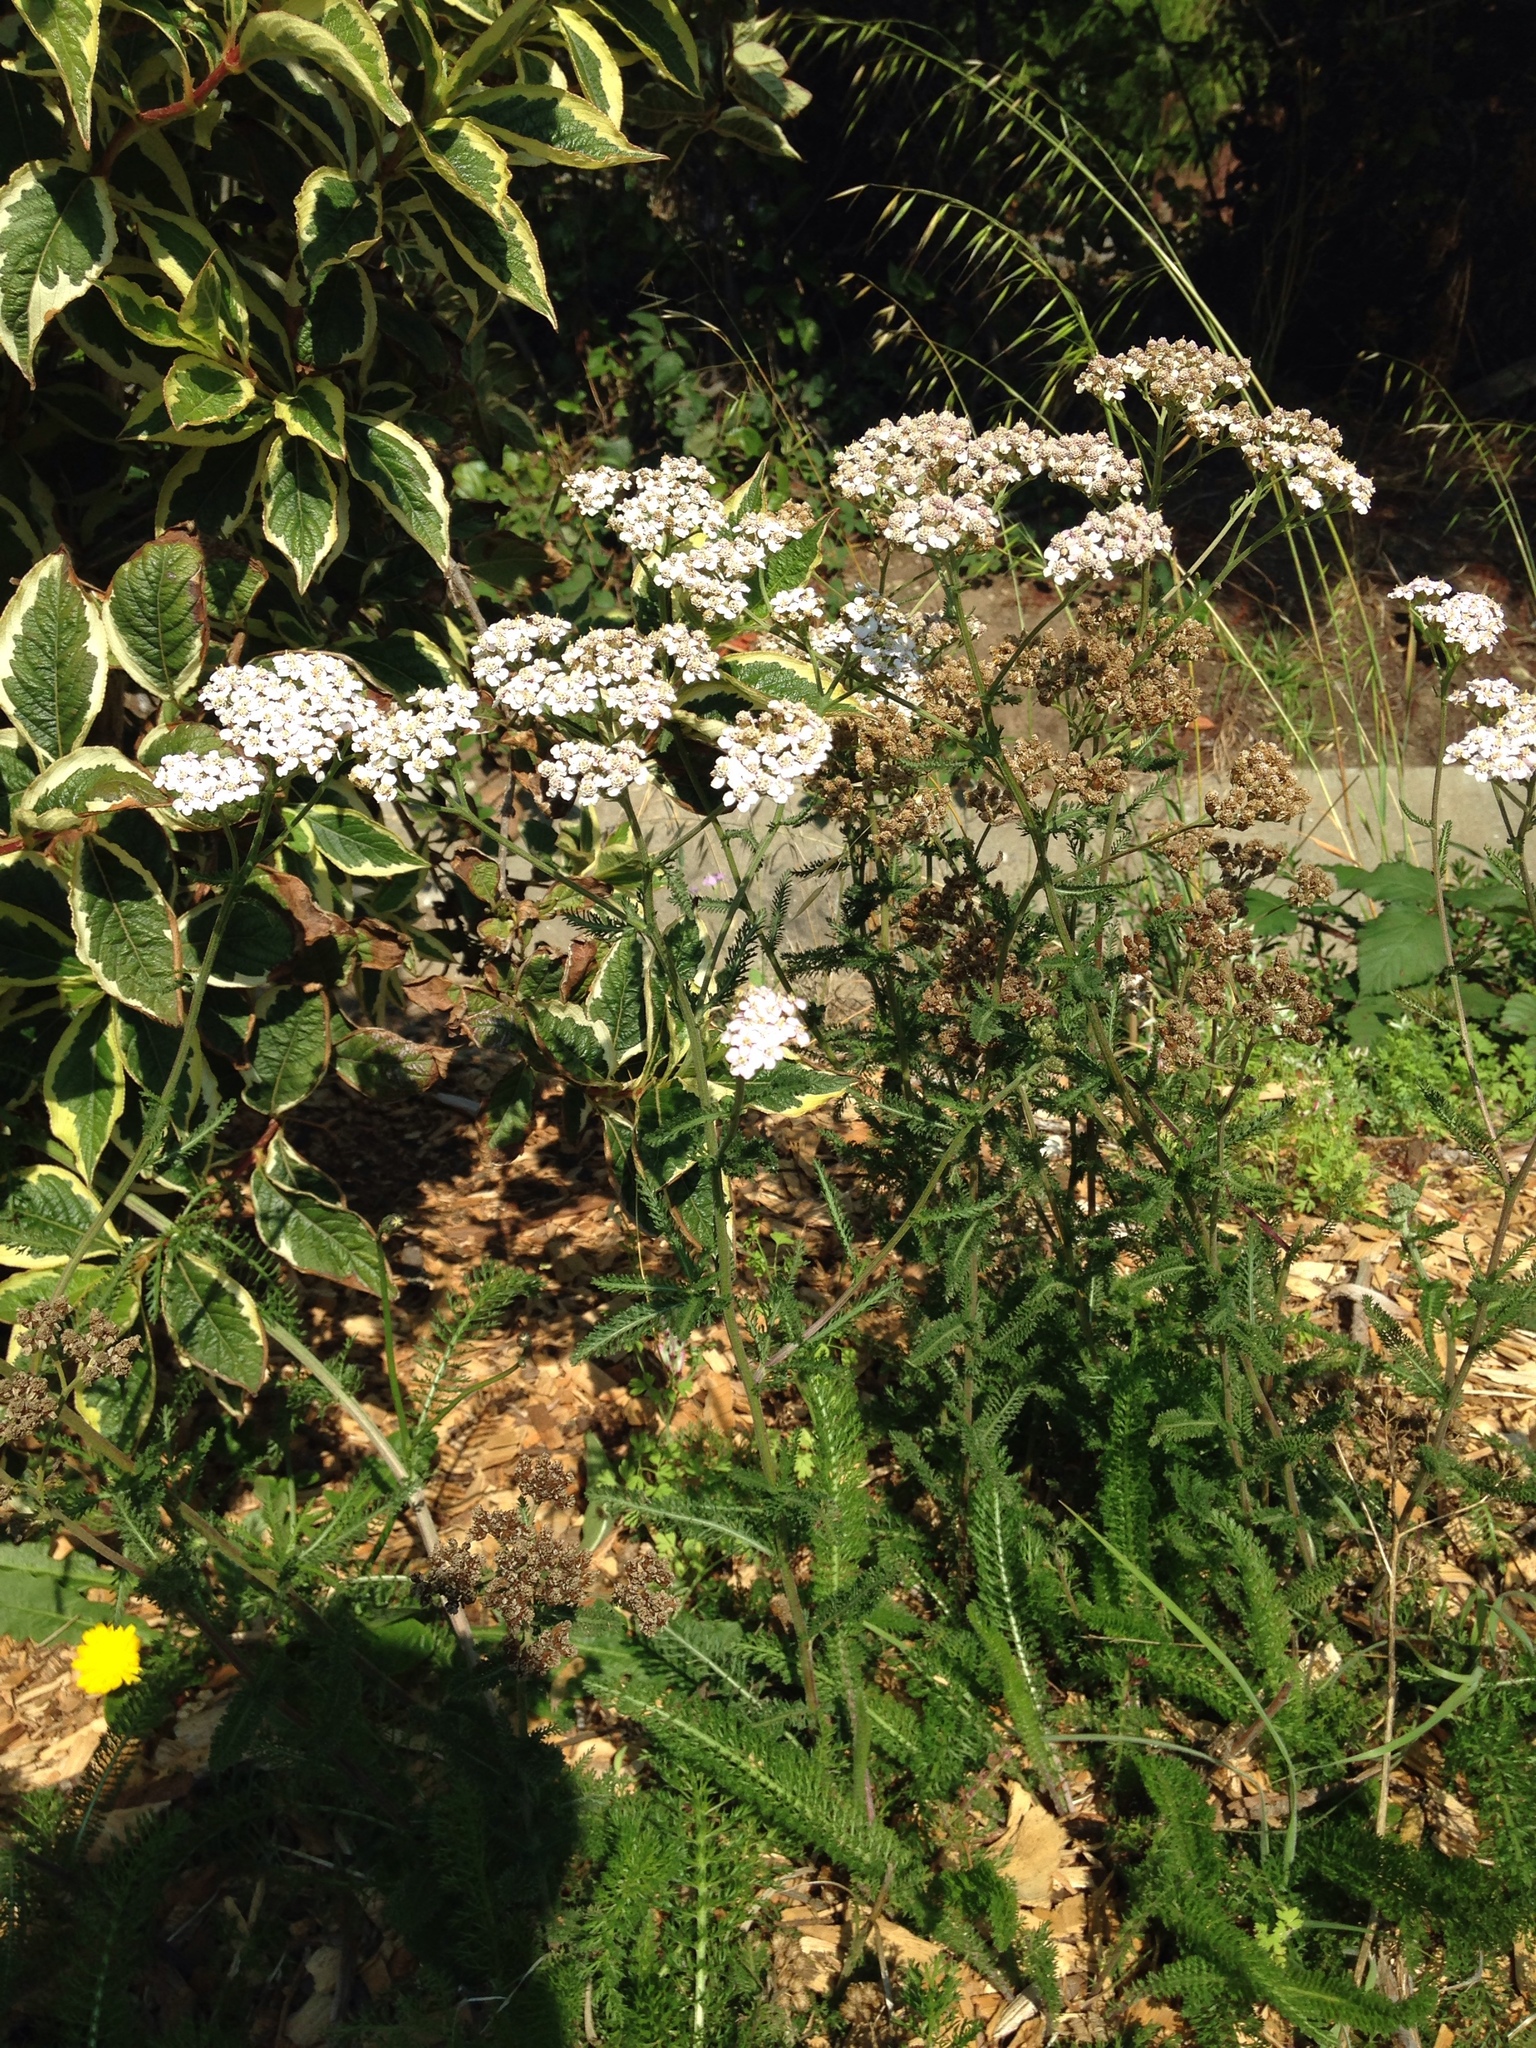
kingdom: Plantae
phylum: Tracheophyta
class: Magnoliopsida
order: Asterales
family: Asteraceae
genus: Achillea
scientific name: Achillea millefolium
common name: Yarrow
